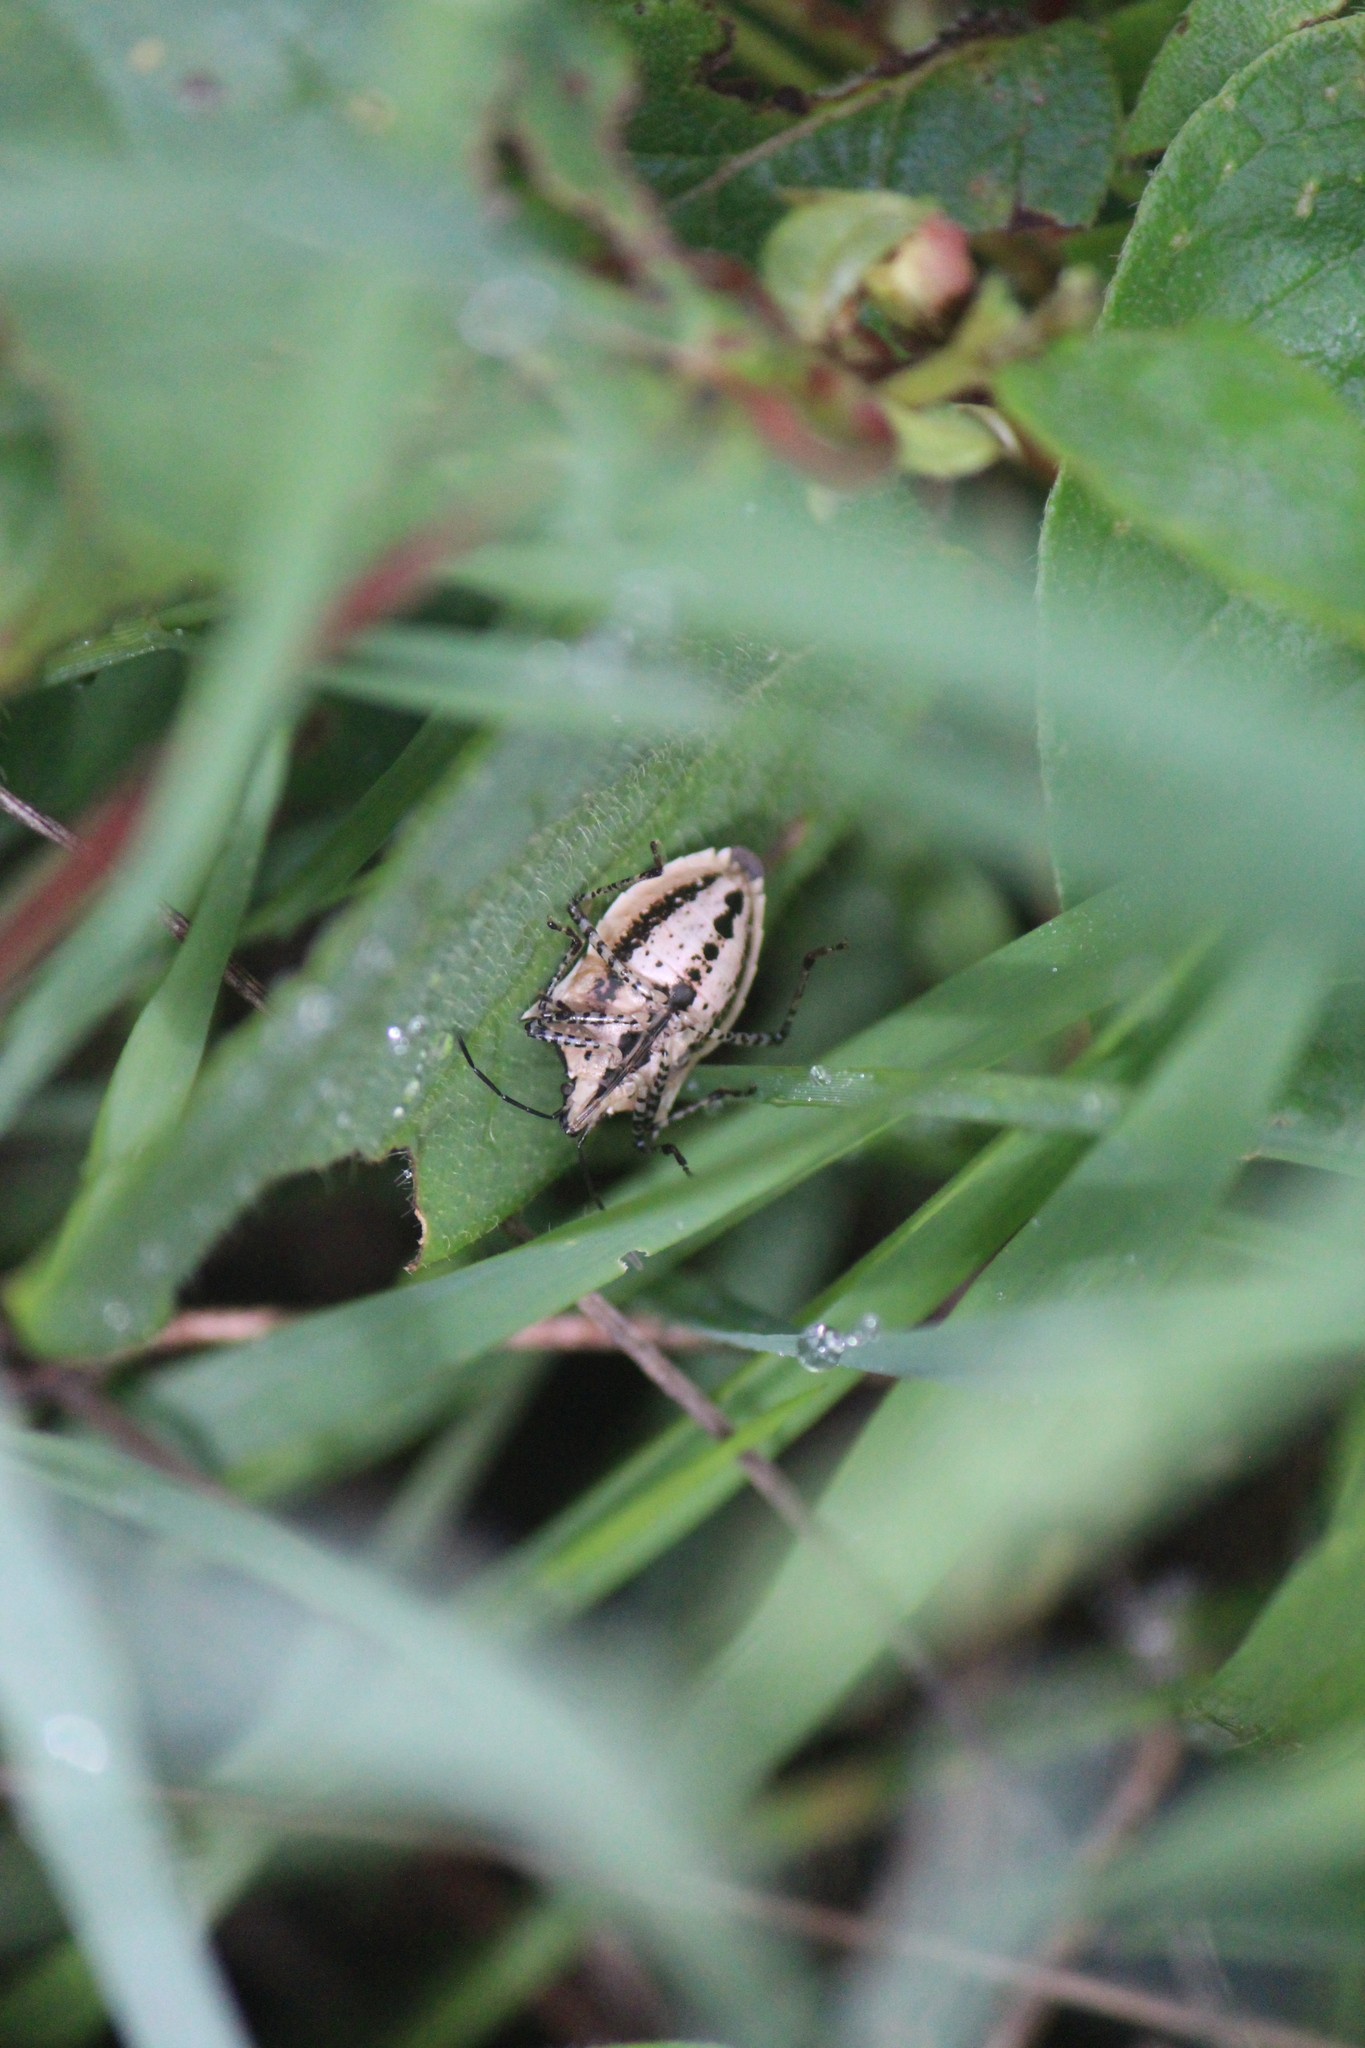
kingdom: Animalia
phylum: Arthropoda
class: Insecta
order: Hemiptera
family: Pentatomidae
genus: Padaeus
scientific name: Padaeus trivittatus
